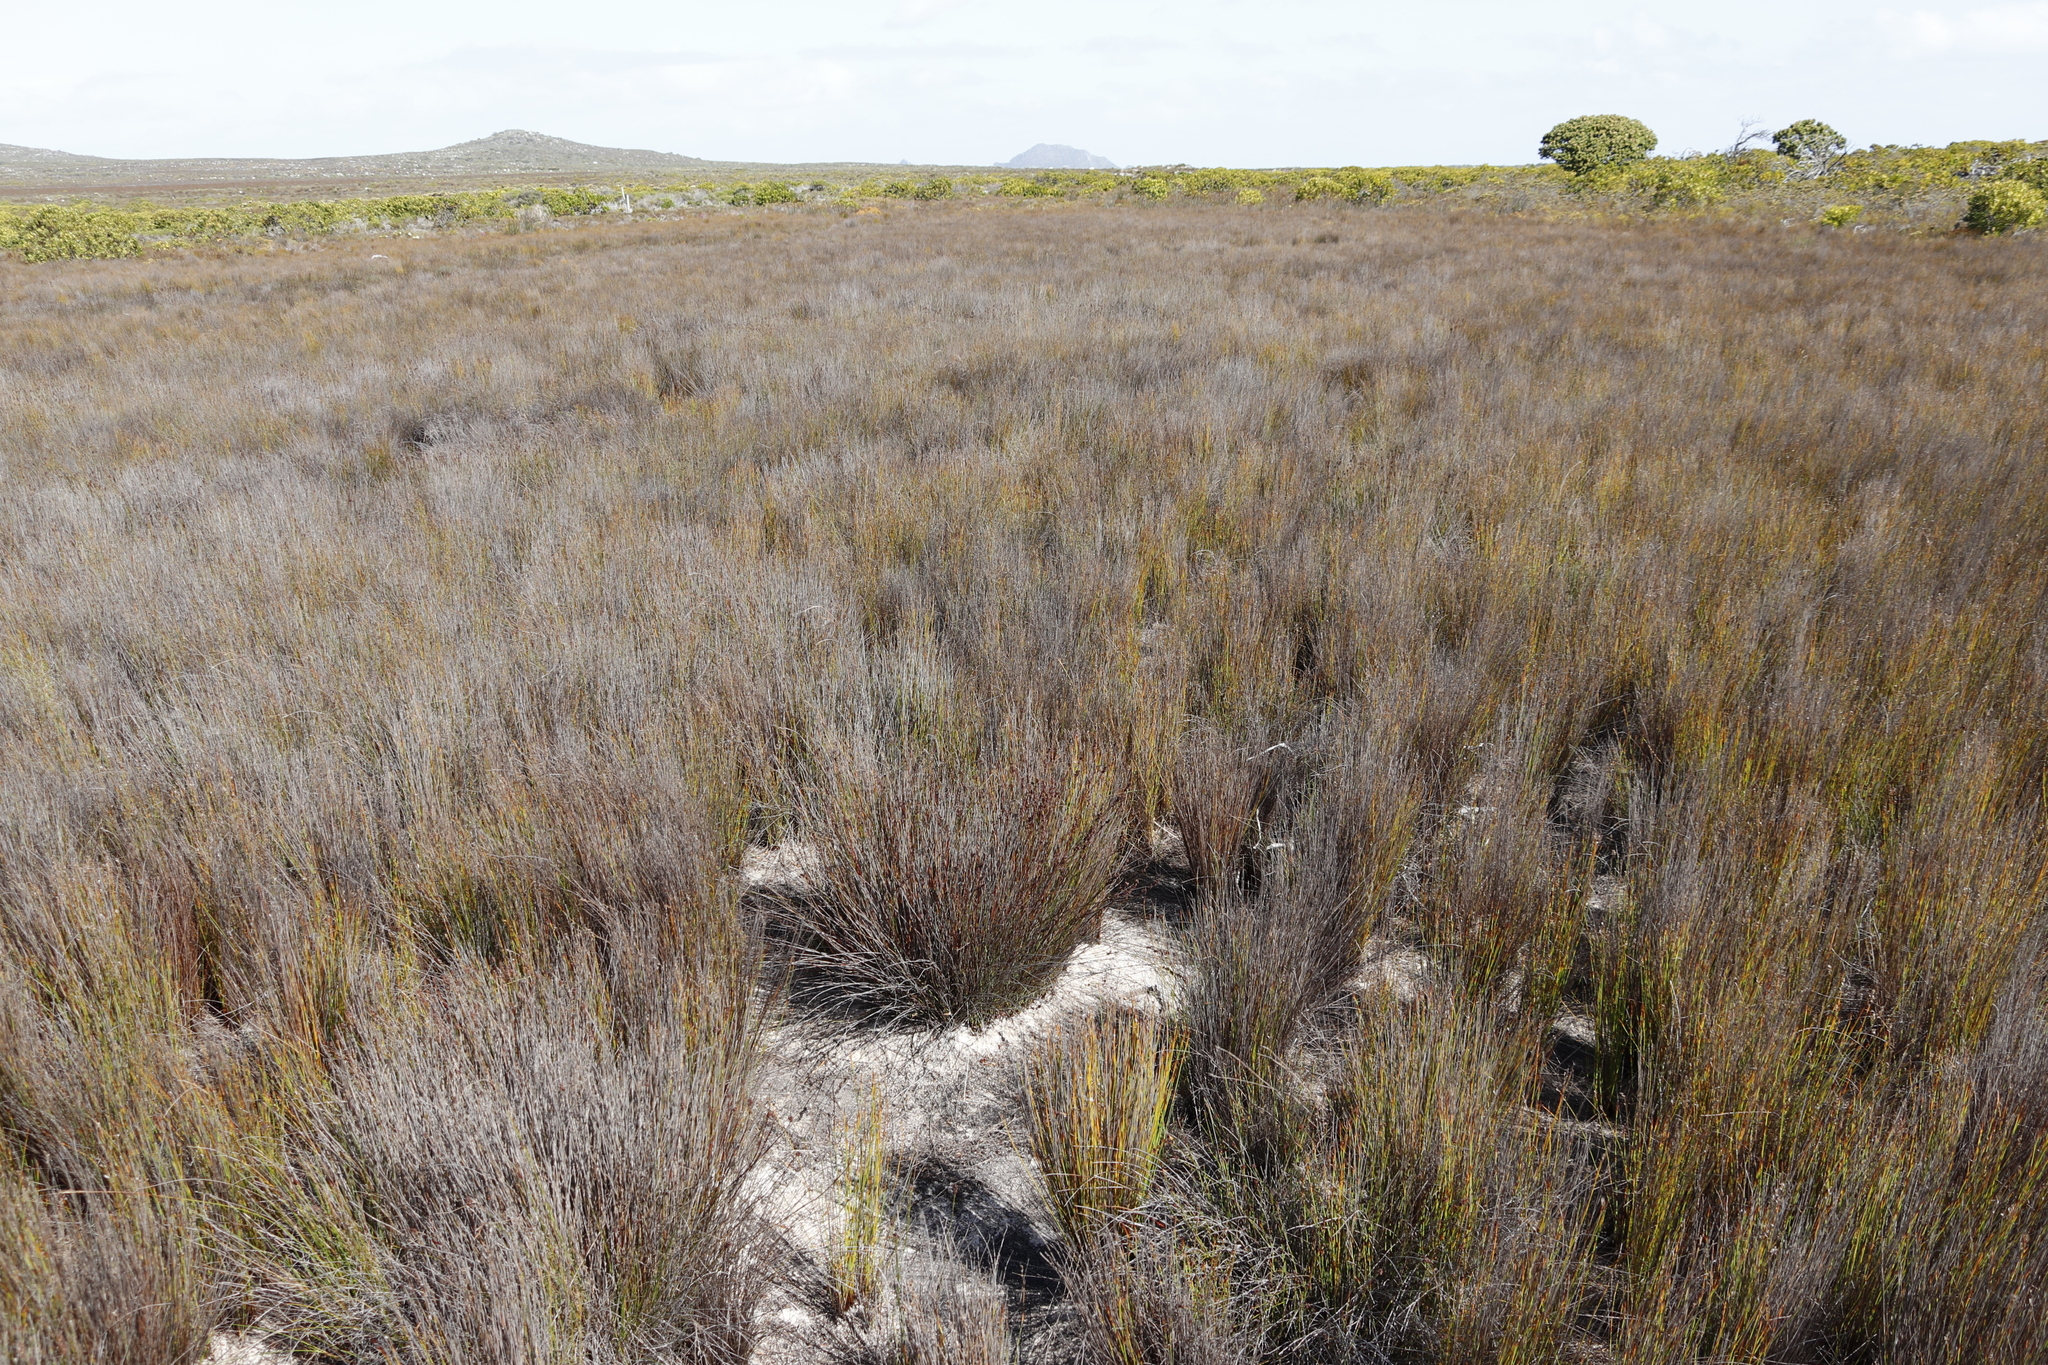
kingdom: Plantae
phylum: Tracheophyta
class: Liliopsida
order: Poales
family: Restionaceae
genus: Elegia
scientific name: Elegia nuda
